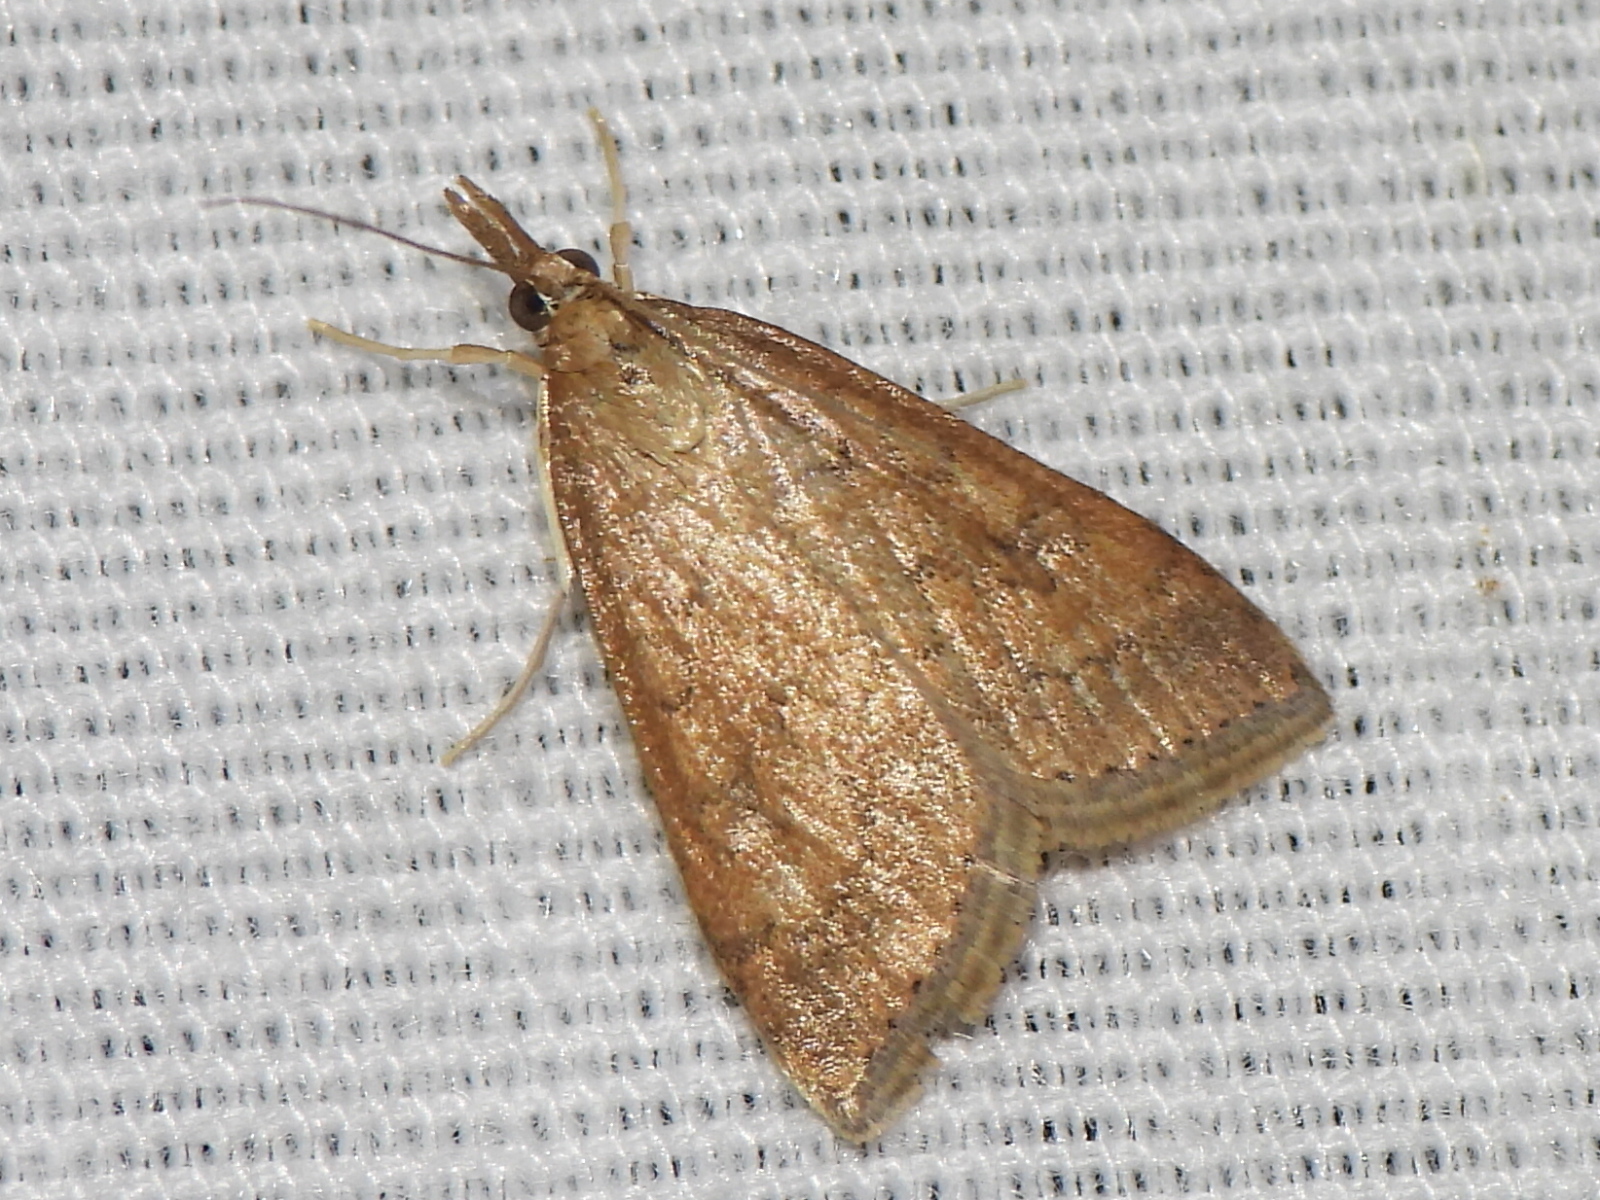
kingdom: Animalia
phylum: Arthropoda
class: Insecta
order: Lepidoptera
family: Crambidae
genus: Udea
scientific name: Udea rubigalis
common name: Celery leaftier moth
